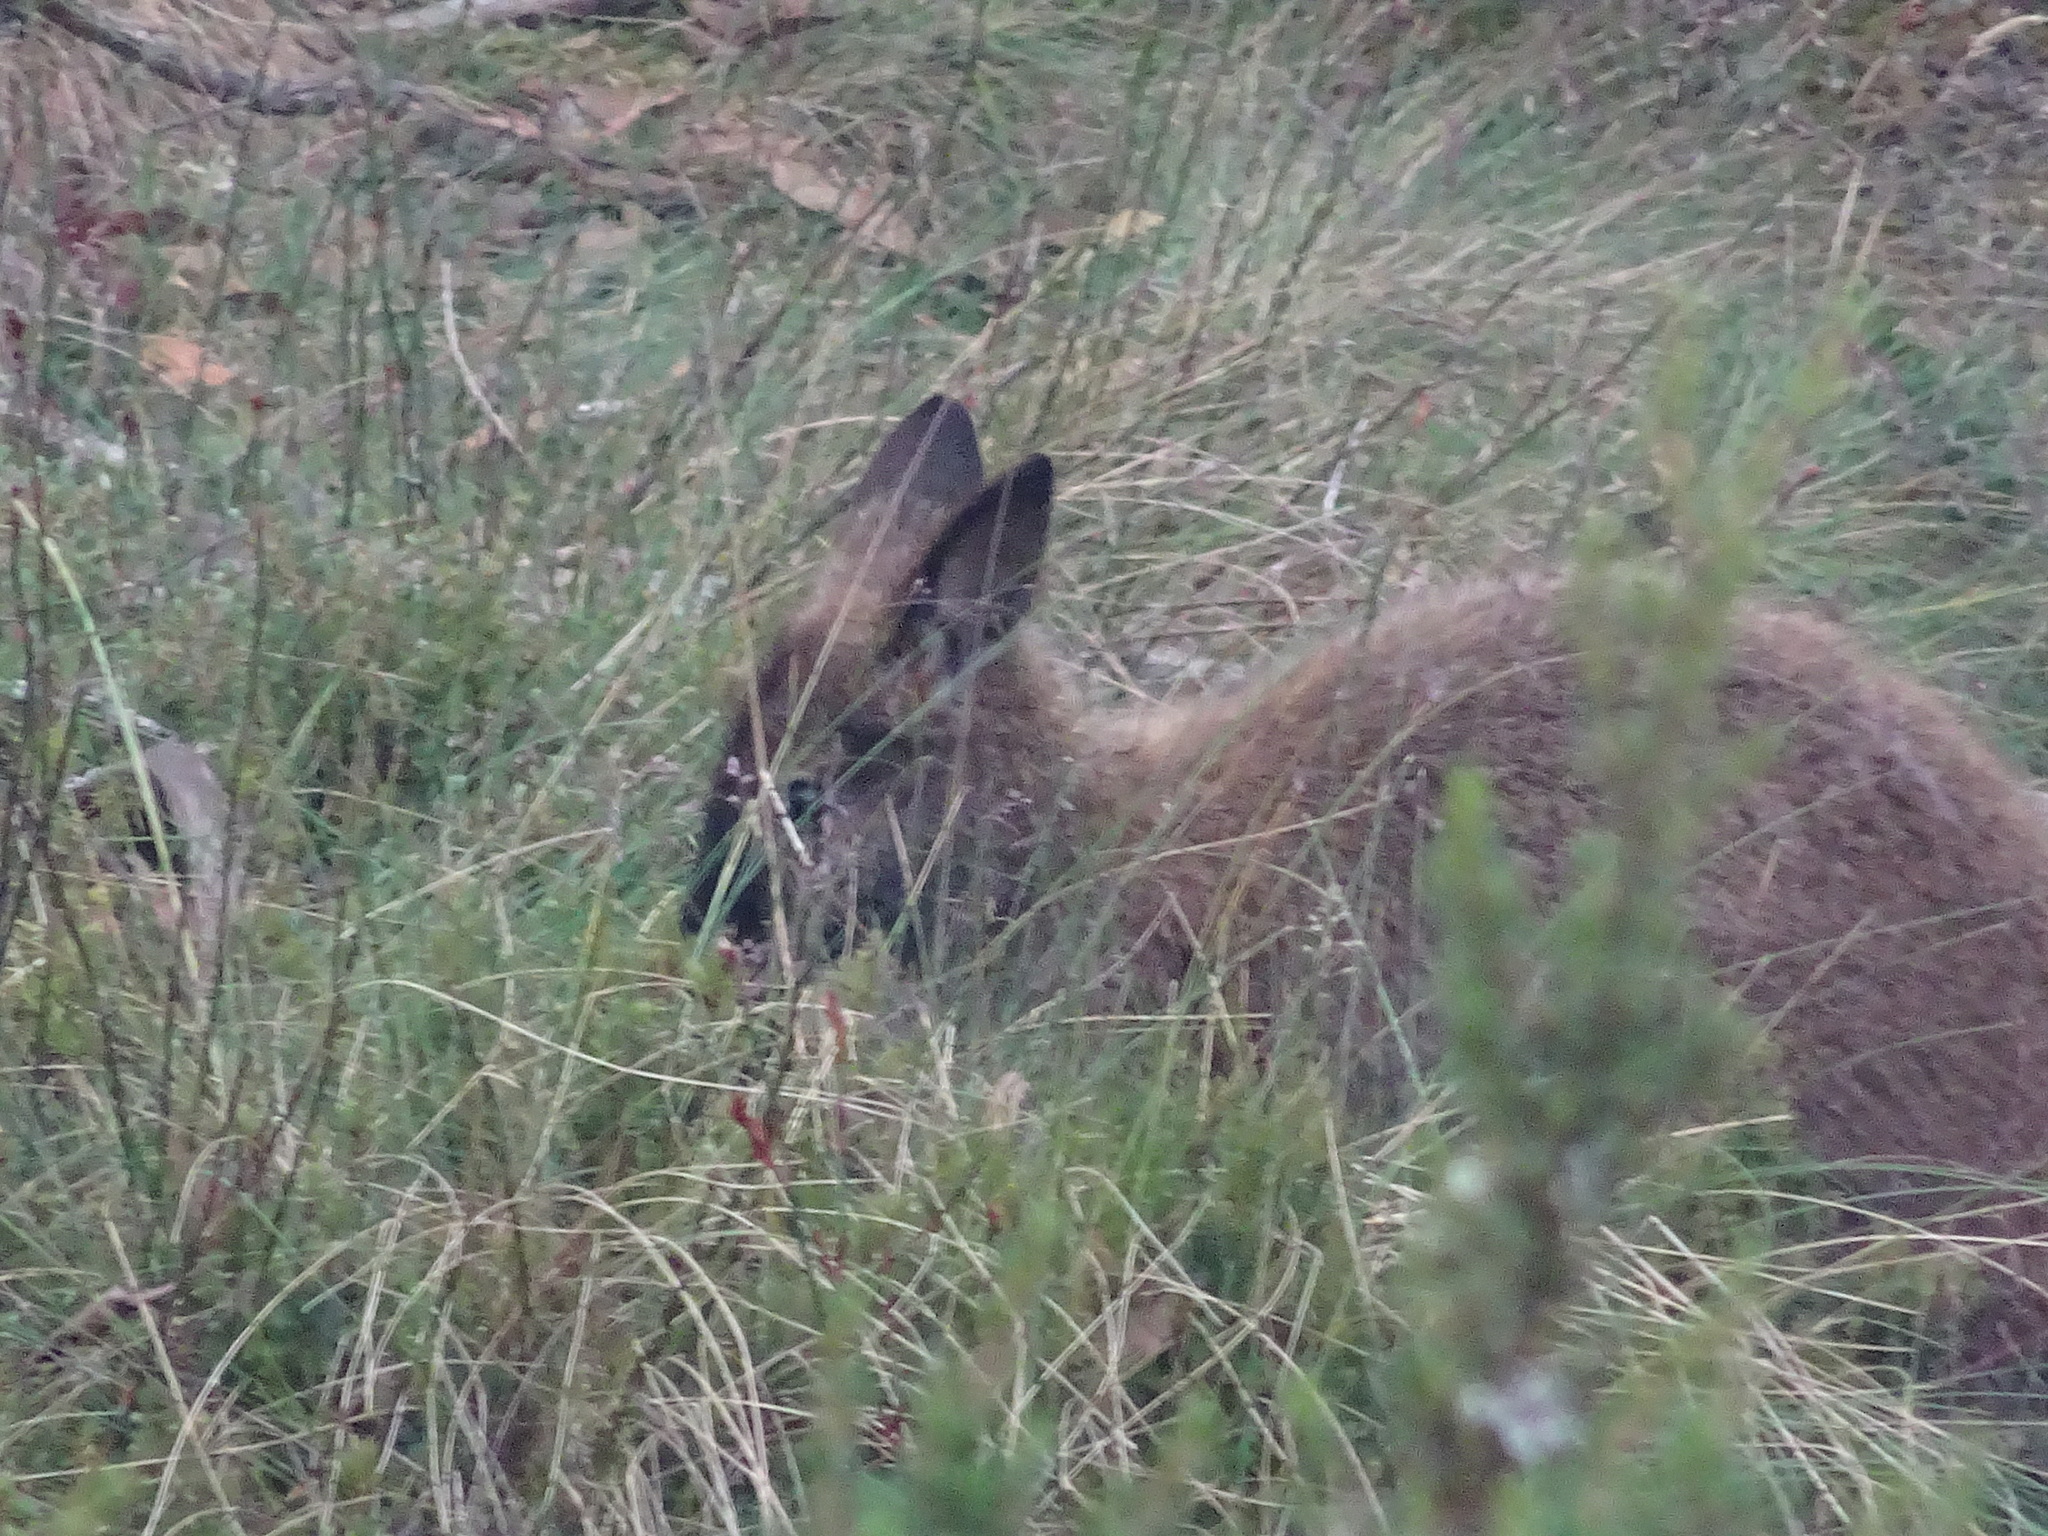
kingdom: Animalia
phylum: Chordata
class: Mammalia
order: Diprotodontia
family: Macropodidae
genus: Notamacropus
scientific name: Notamacropus rufogriseus
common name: Red-necked wallaby
